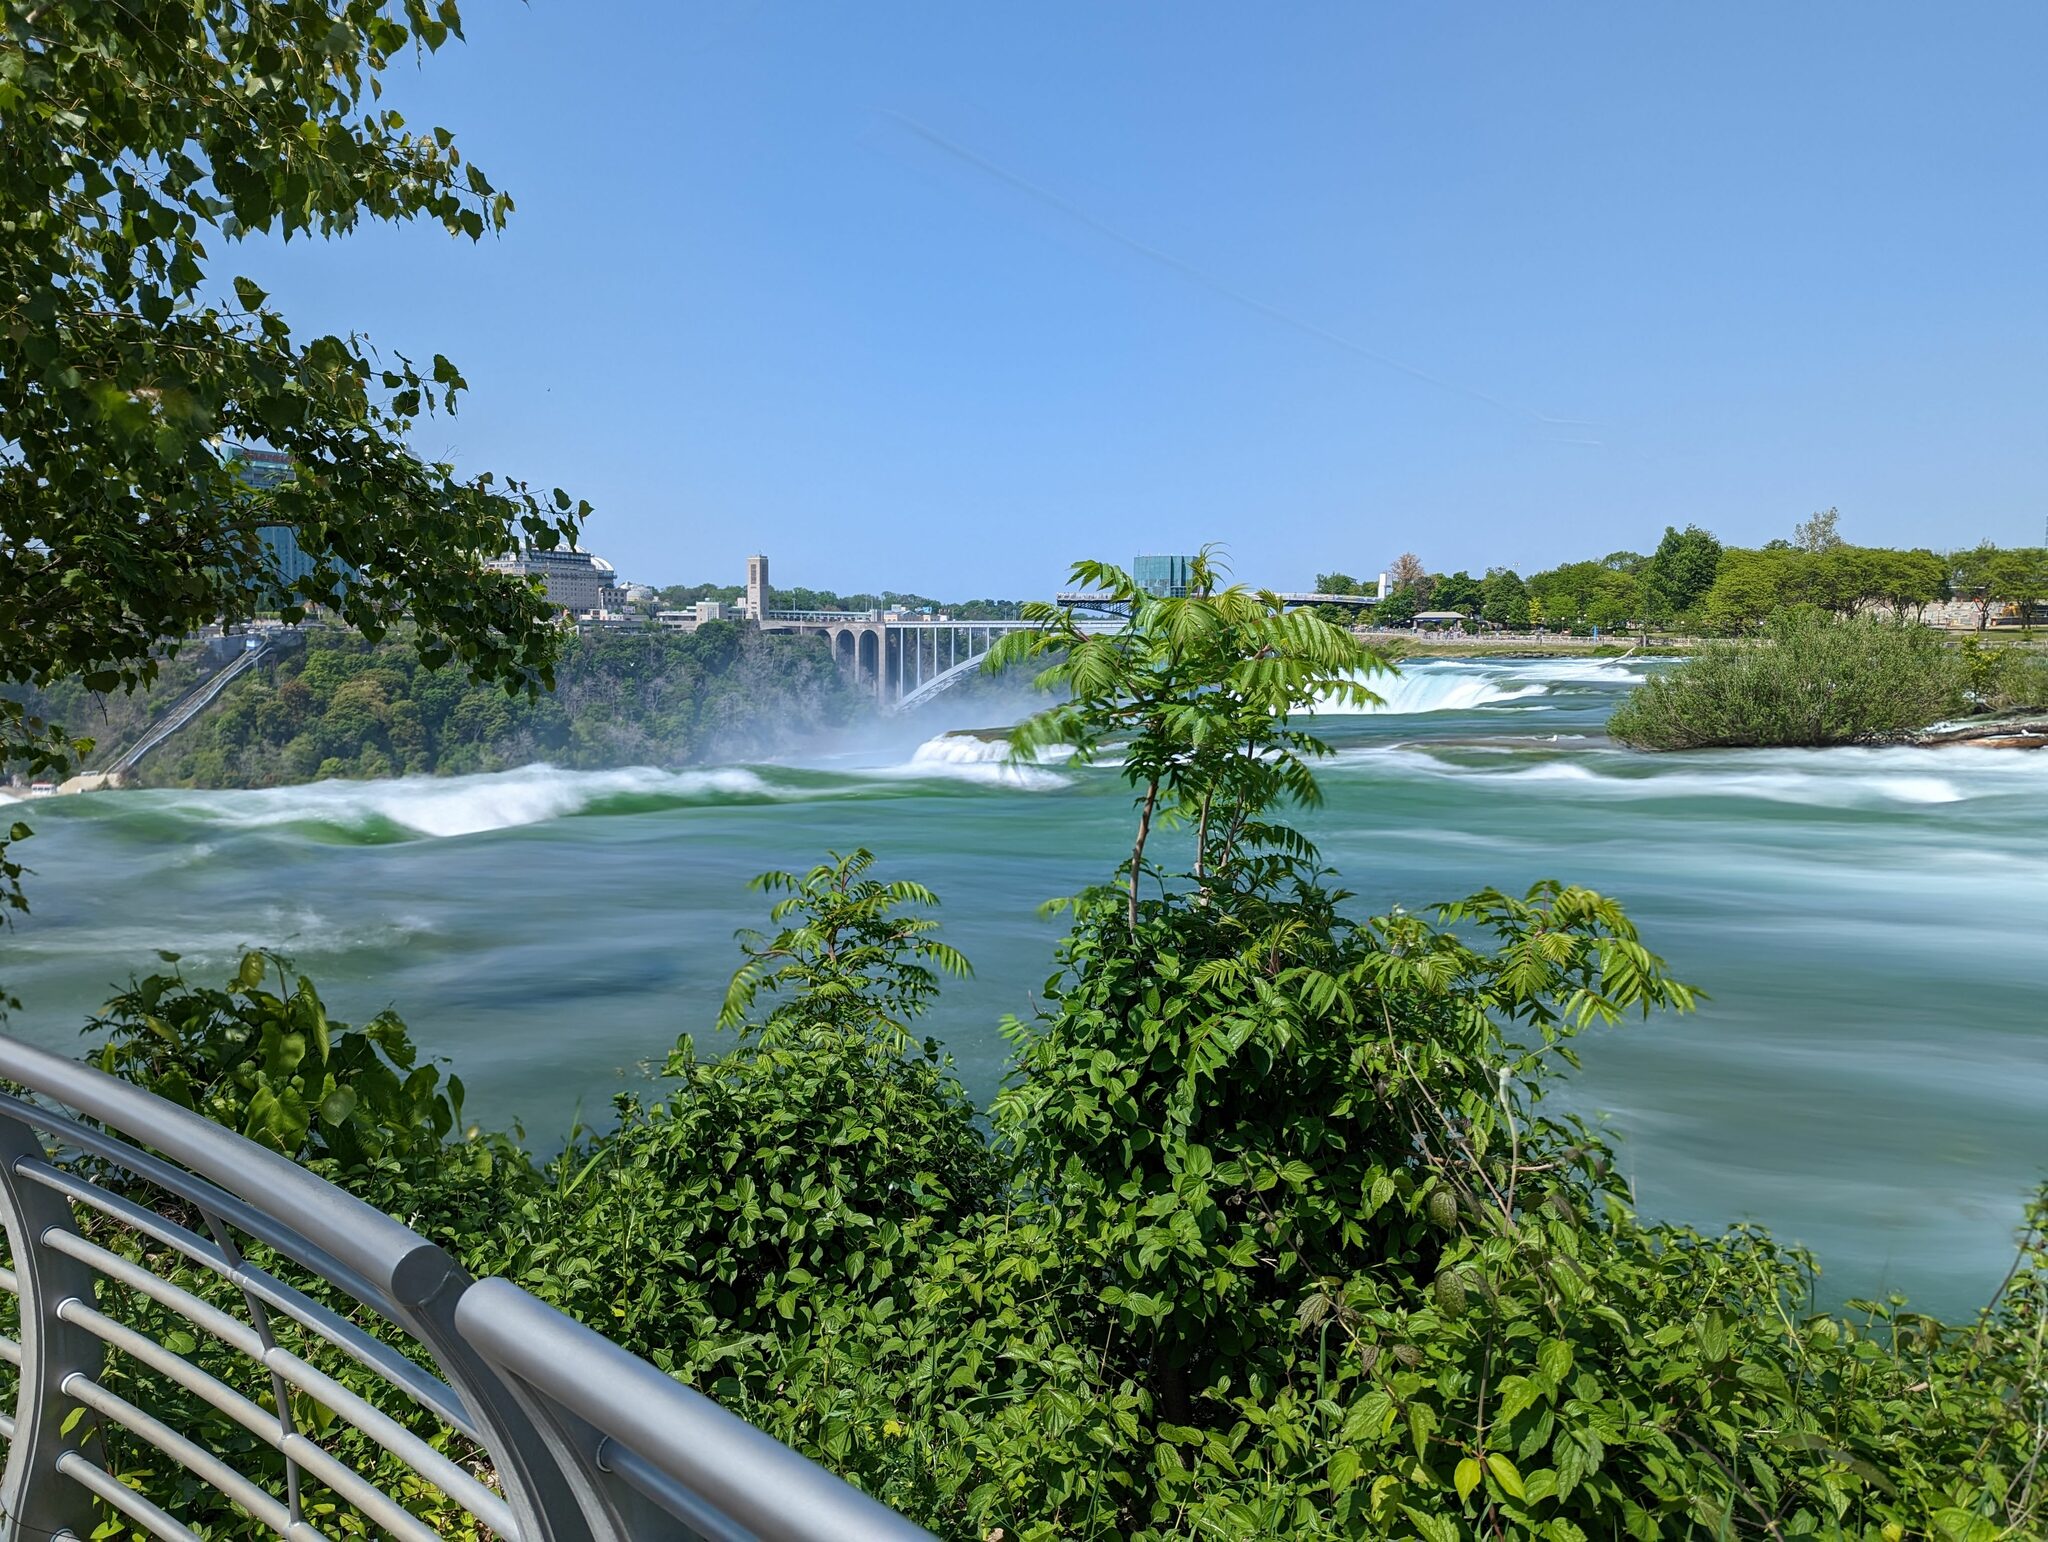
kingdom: Plantae
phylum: Tracheophyta
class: Magnoliopsida
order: Sapindales
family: Anacardiaceae
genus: Rhus
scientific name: Rhus typhina
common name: Staghorn sumac
